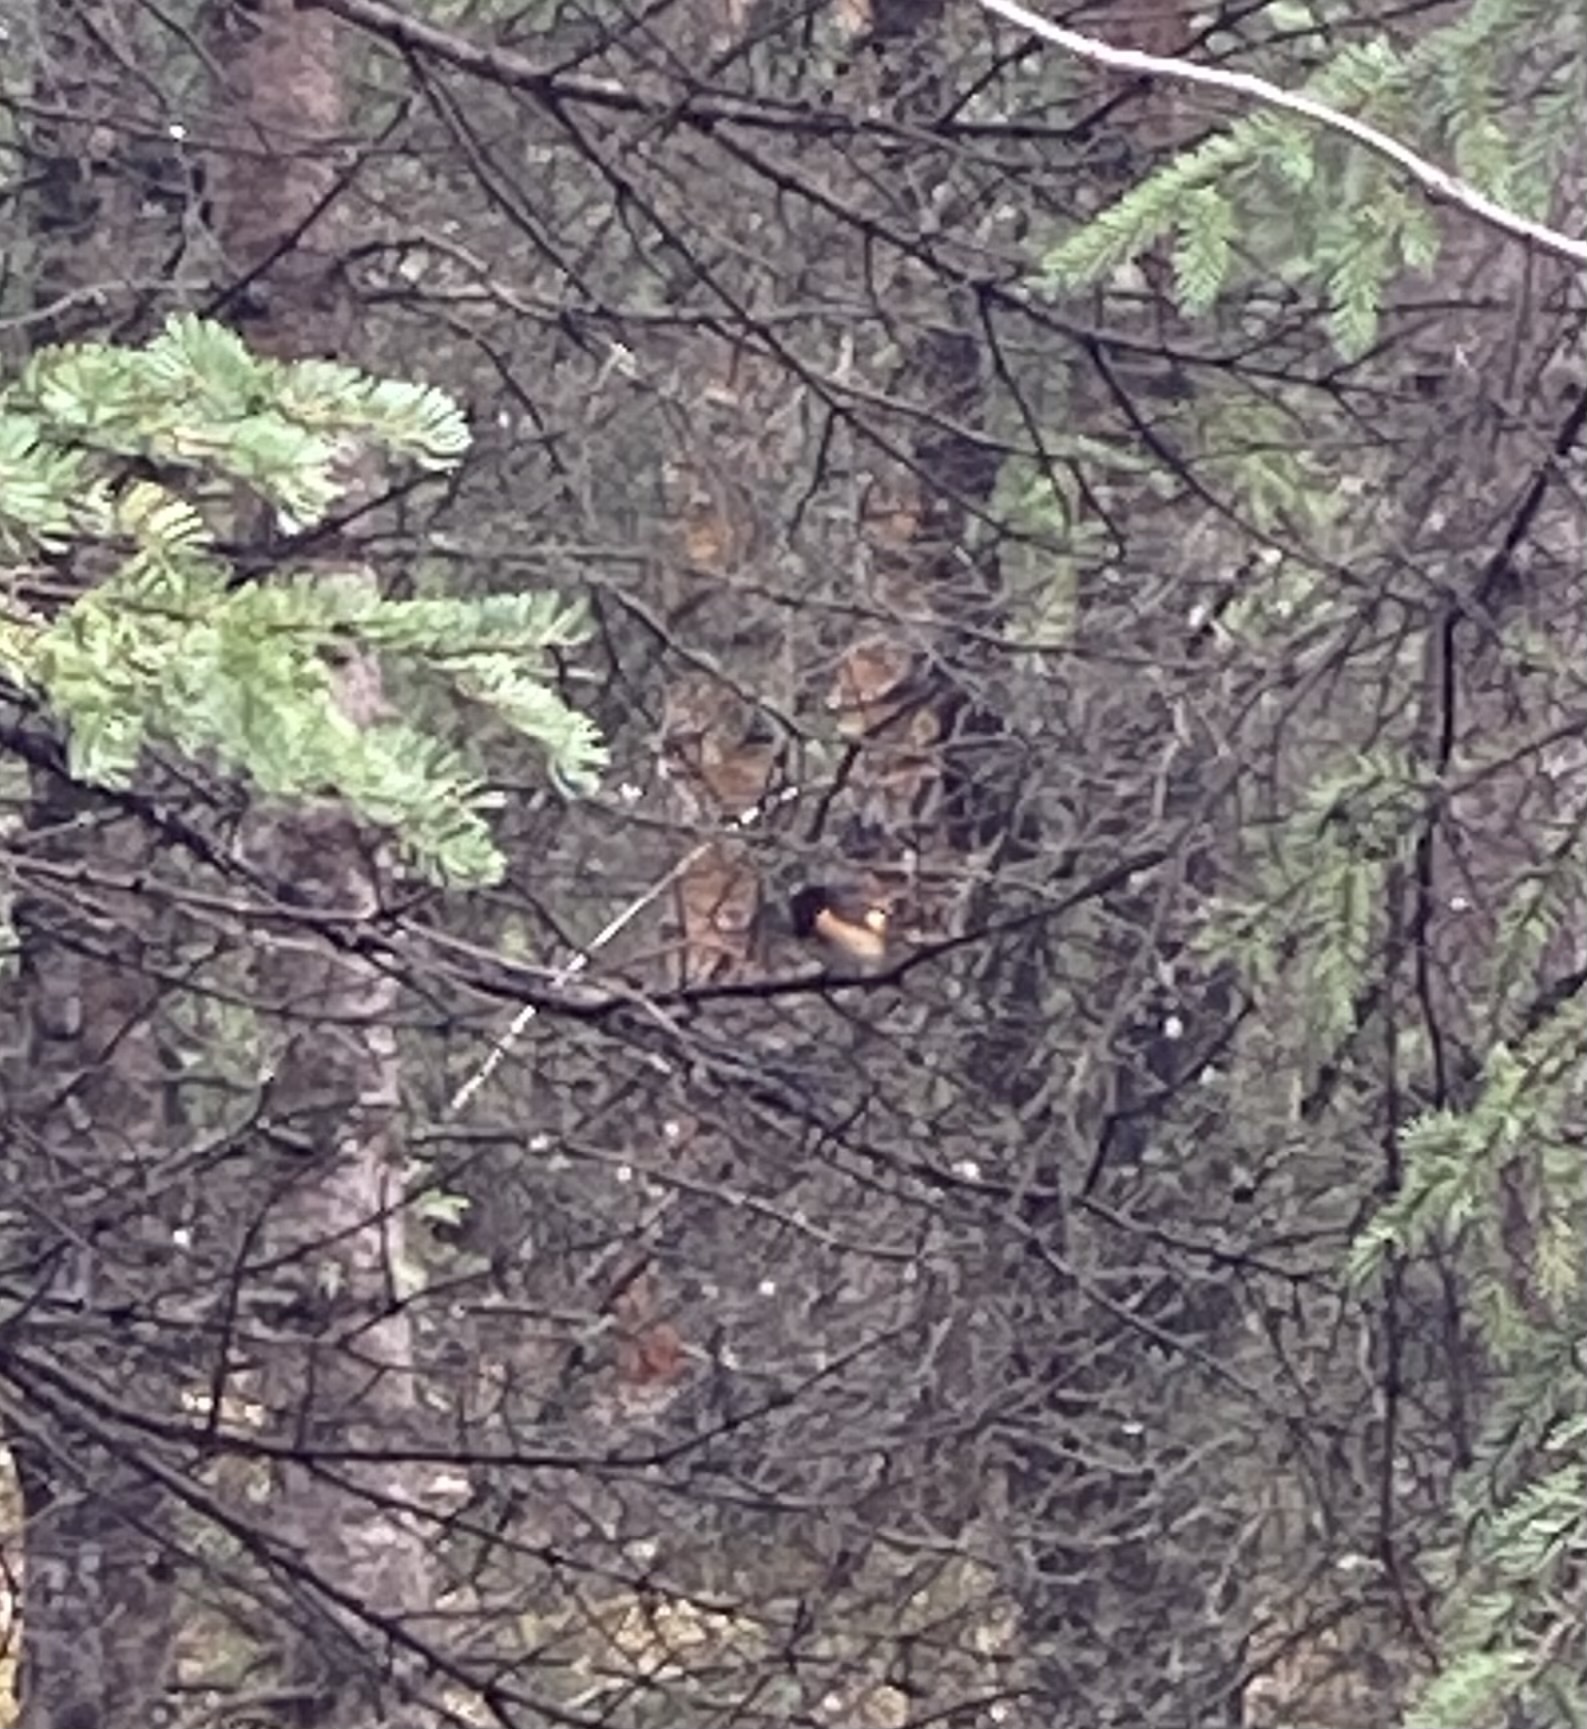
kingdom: Animalia
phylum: Chordata
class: Aves
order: Passeriformes
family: Parulidae
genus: Setophaga
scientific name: Setophaga ruticilla
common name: American redstart
